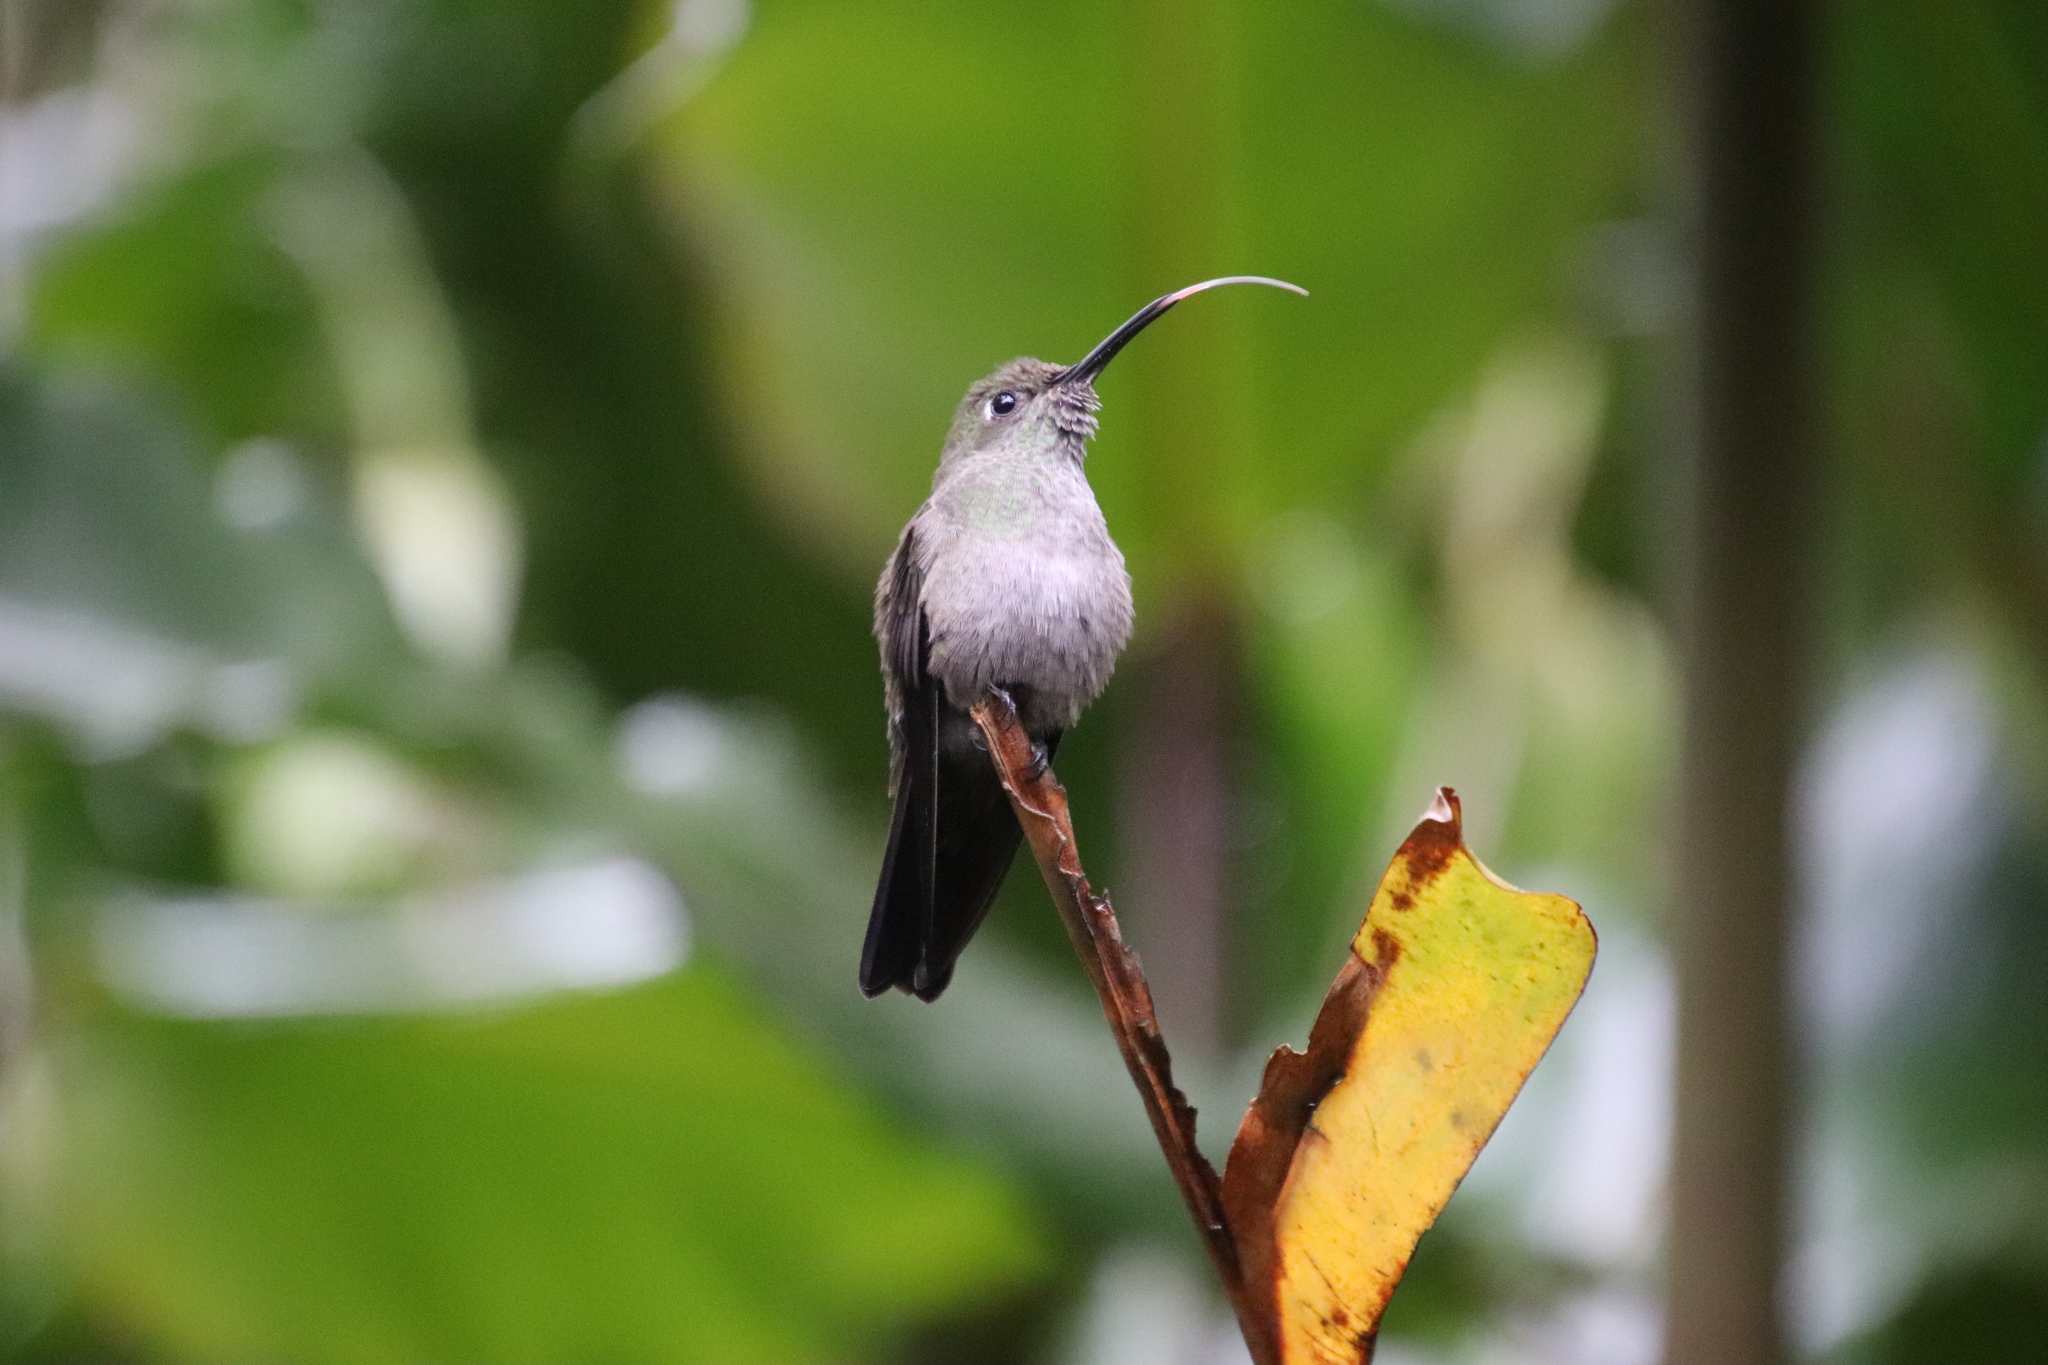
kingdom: Animalia
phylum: Chordata
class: Aves
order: Apodiformes
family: Trochilidae
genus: Eupetomena
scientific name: Eupetomena cirrochloris
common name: Sombre hummingbird
